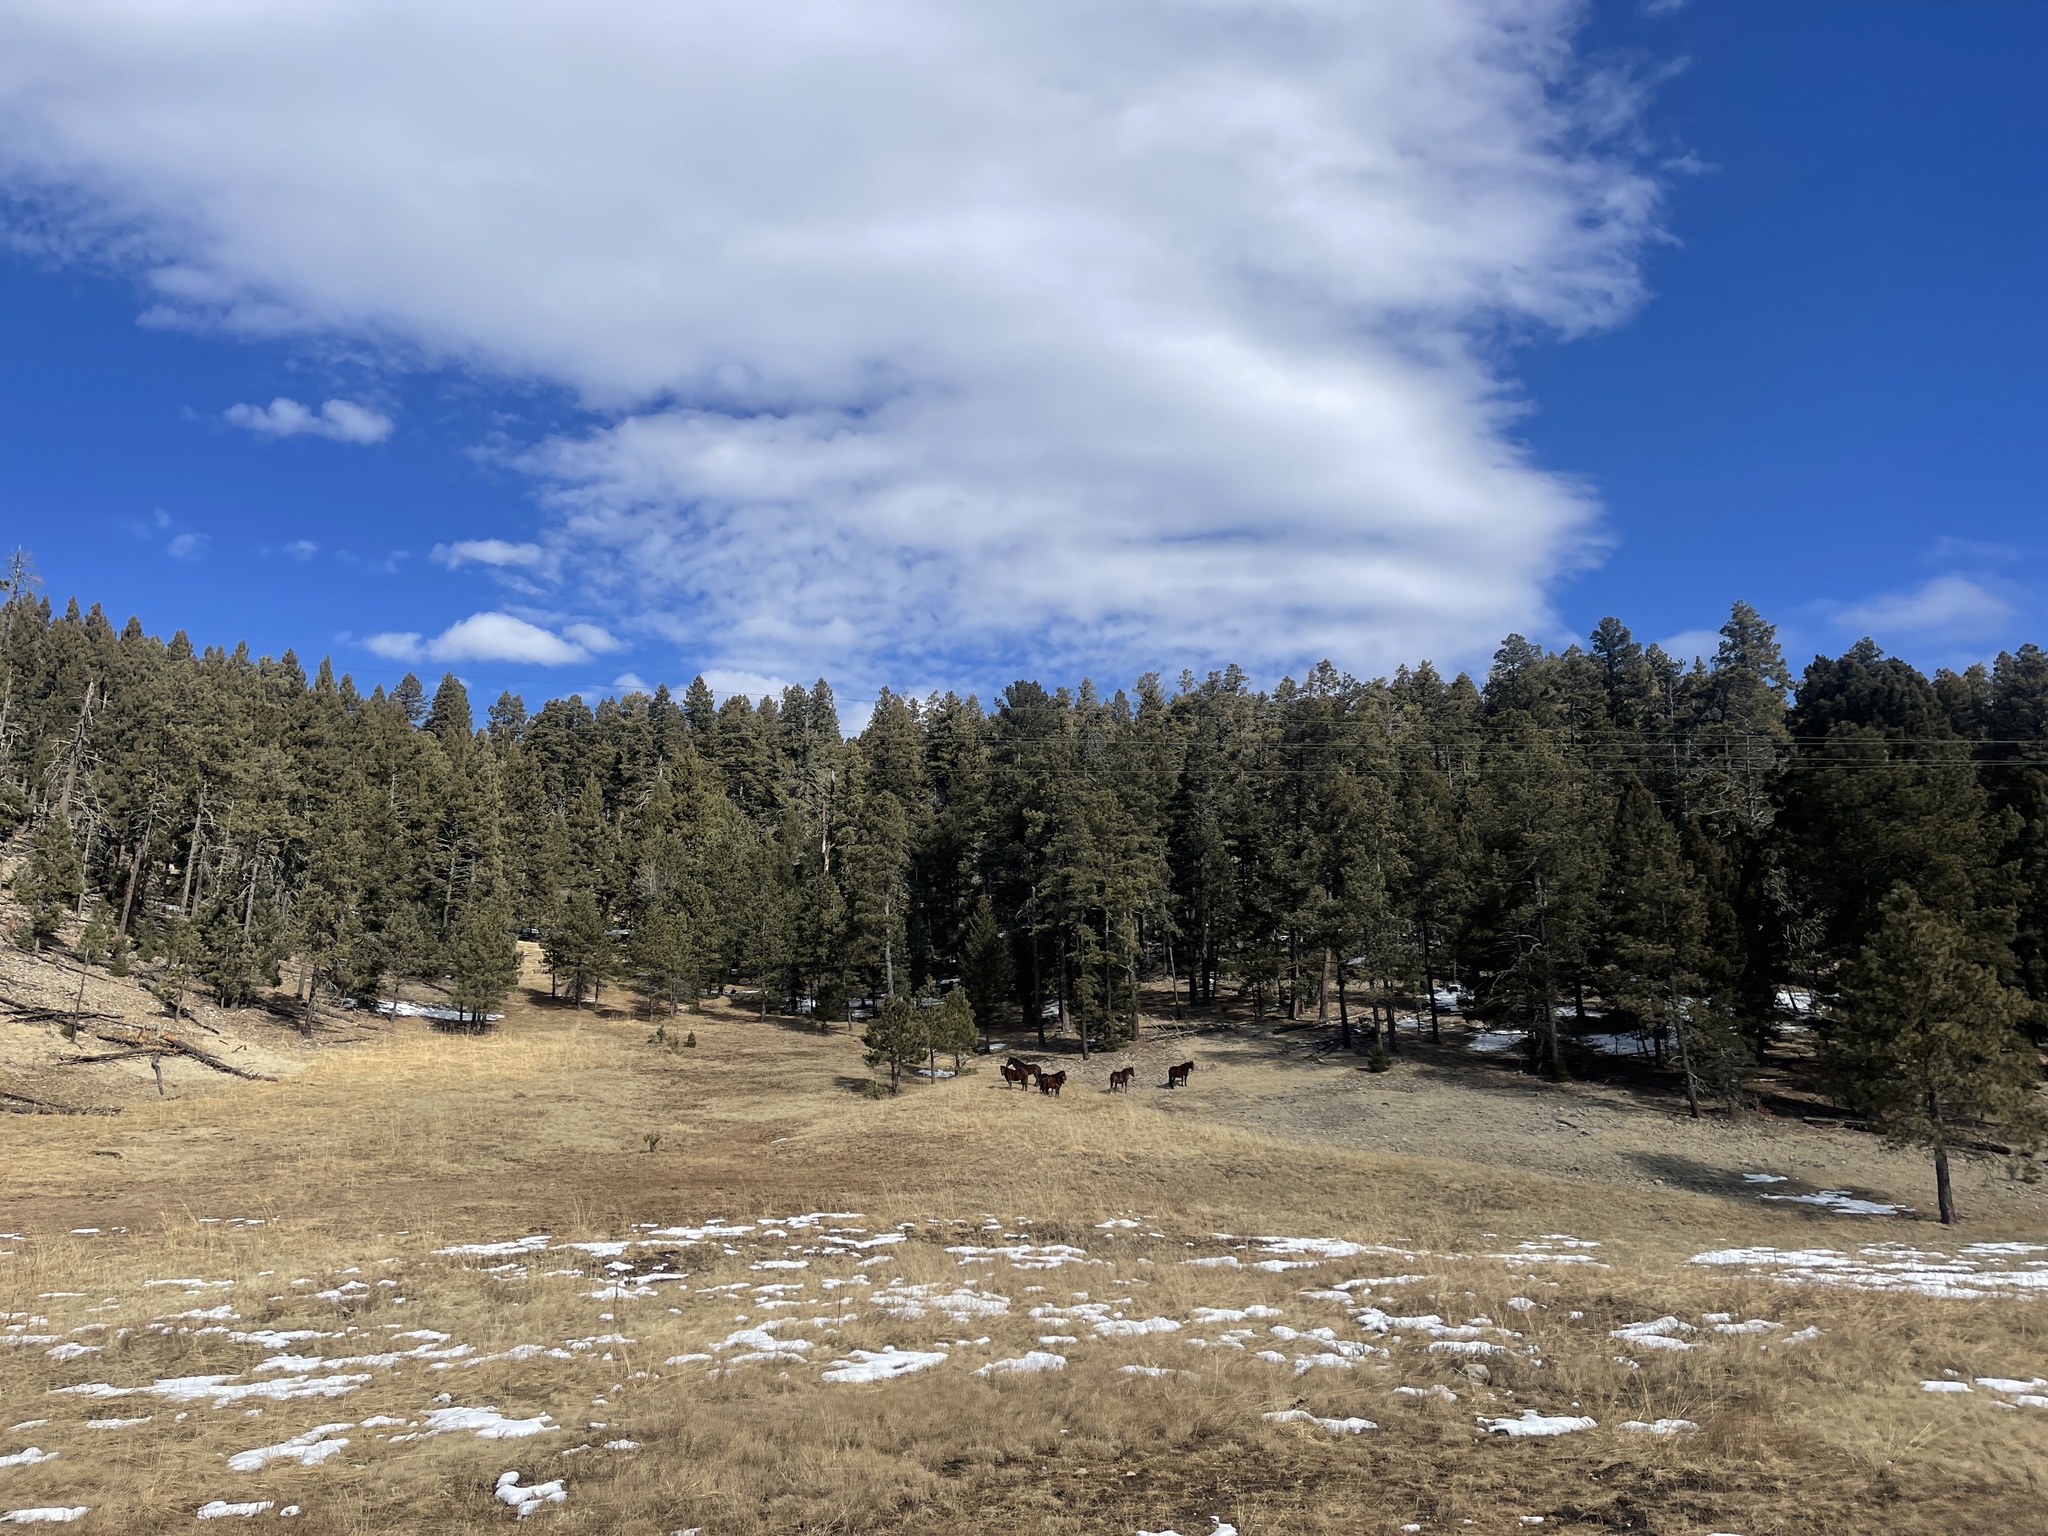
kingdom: Animalia
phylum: Chordata
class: Mammalia
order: Perissodactyla
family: Equidae
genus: Equus
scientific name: Equus caballus
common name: Horse
